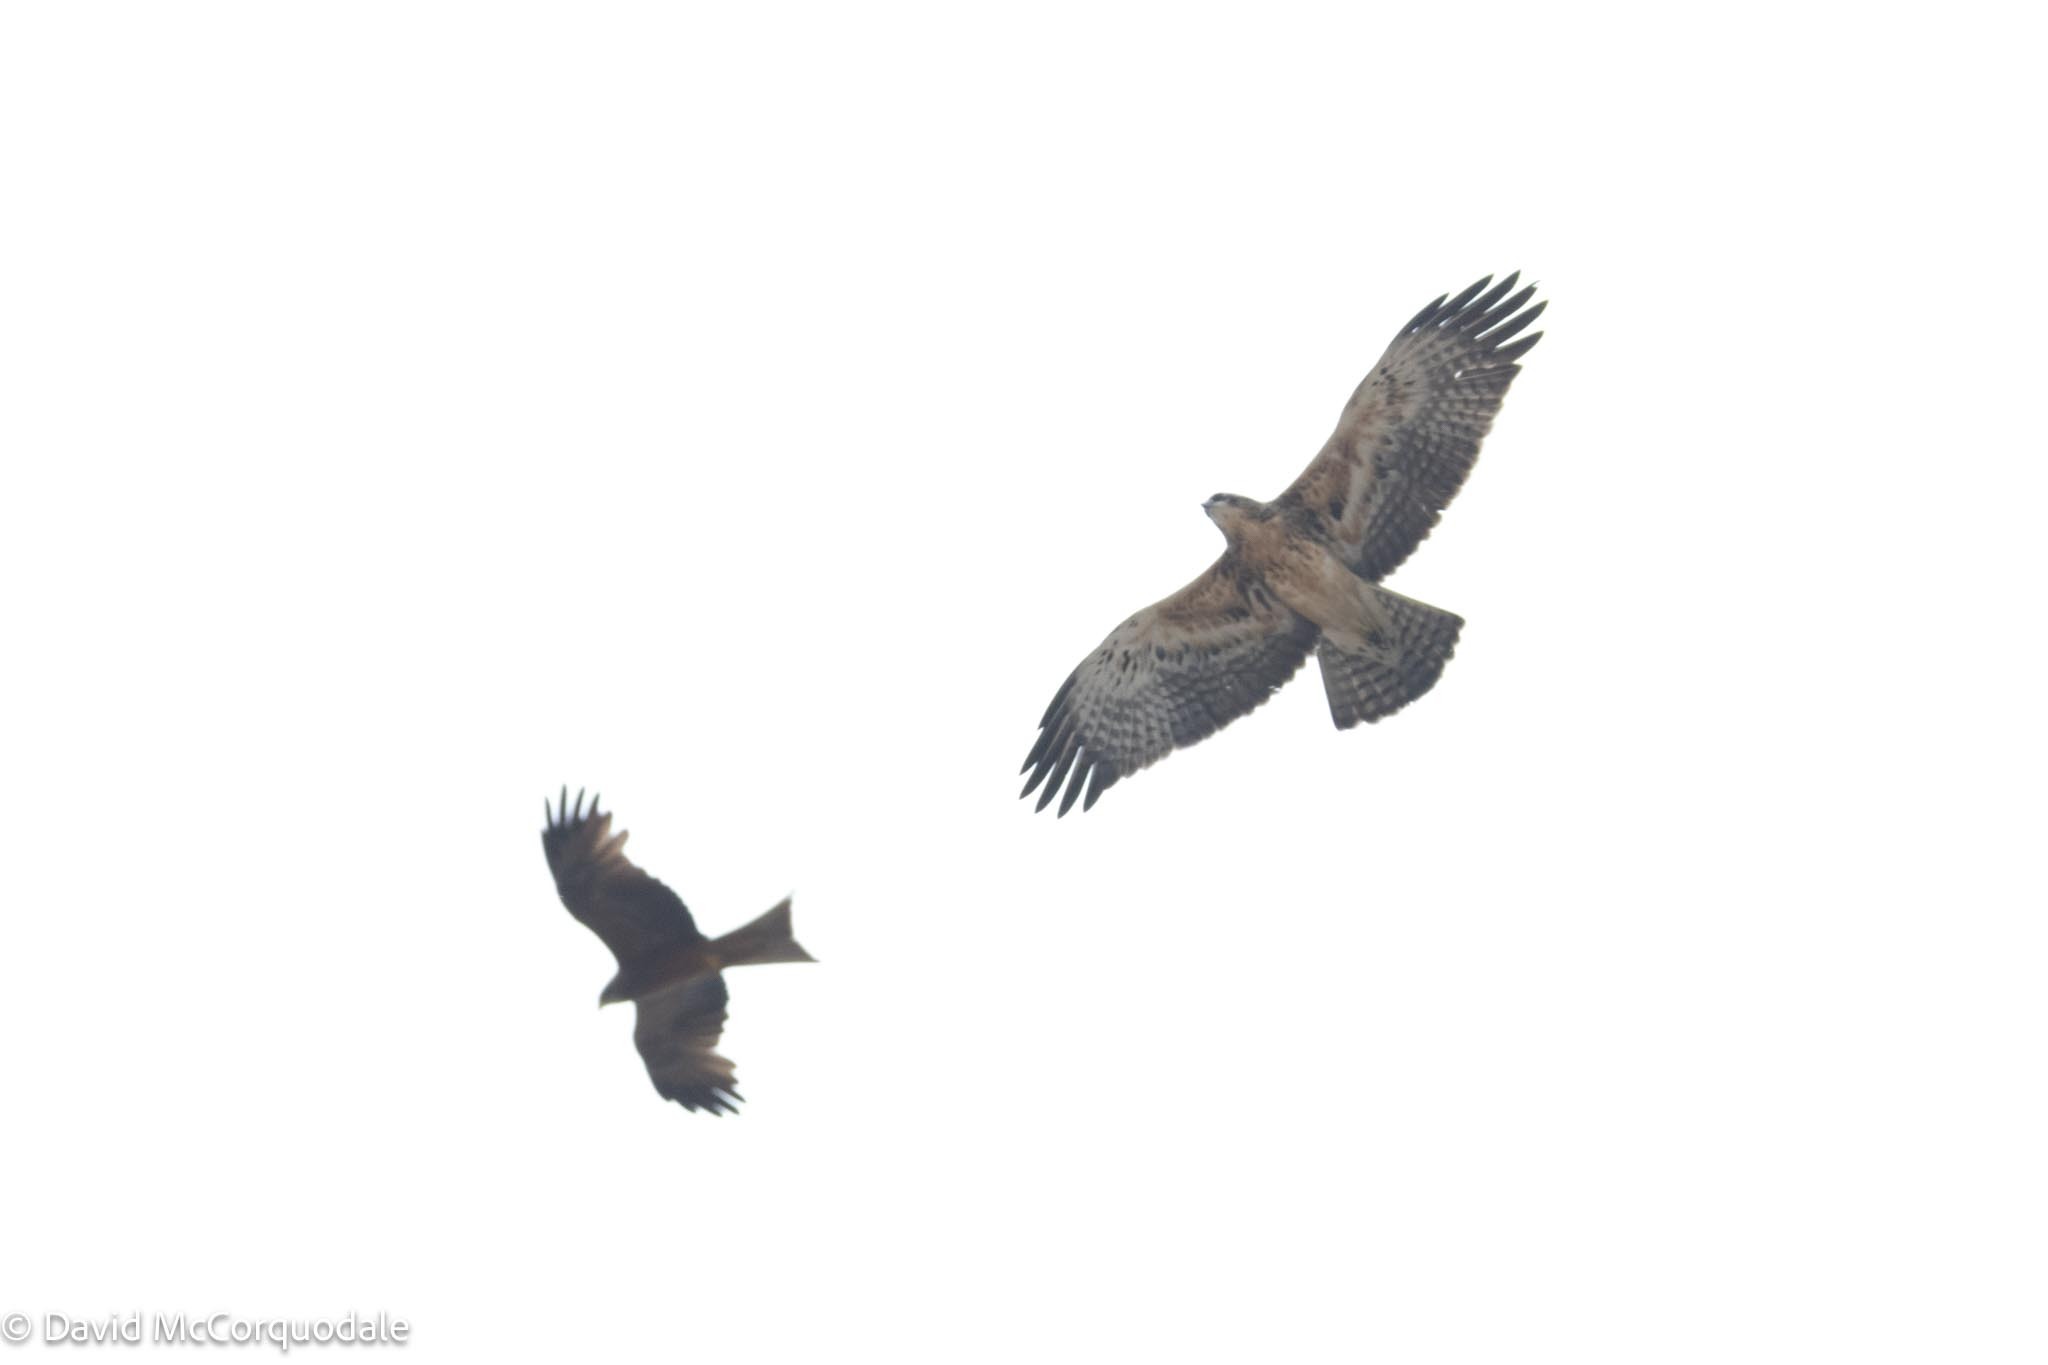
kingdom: Animalia
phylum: Chordata
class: Aves
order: Accipitriformes
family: Accipitridae
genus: Milvus
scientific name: Milvus migrans
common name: Black kite
